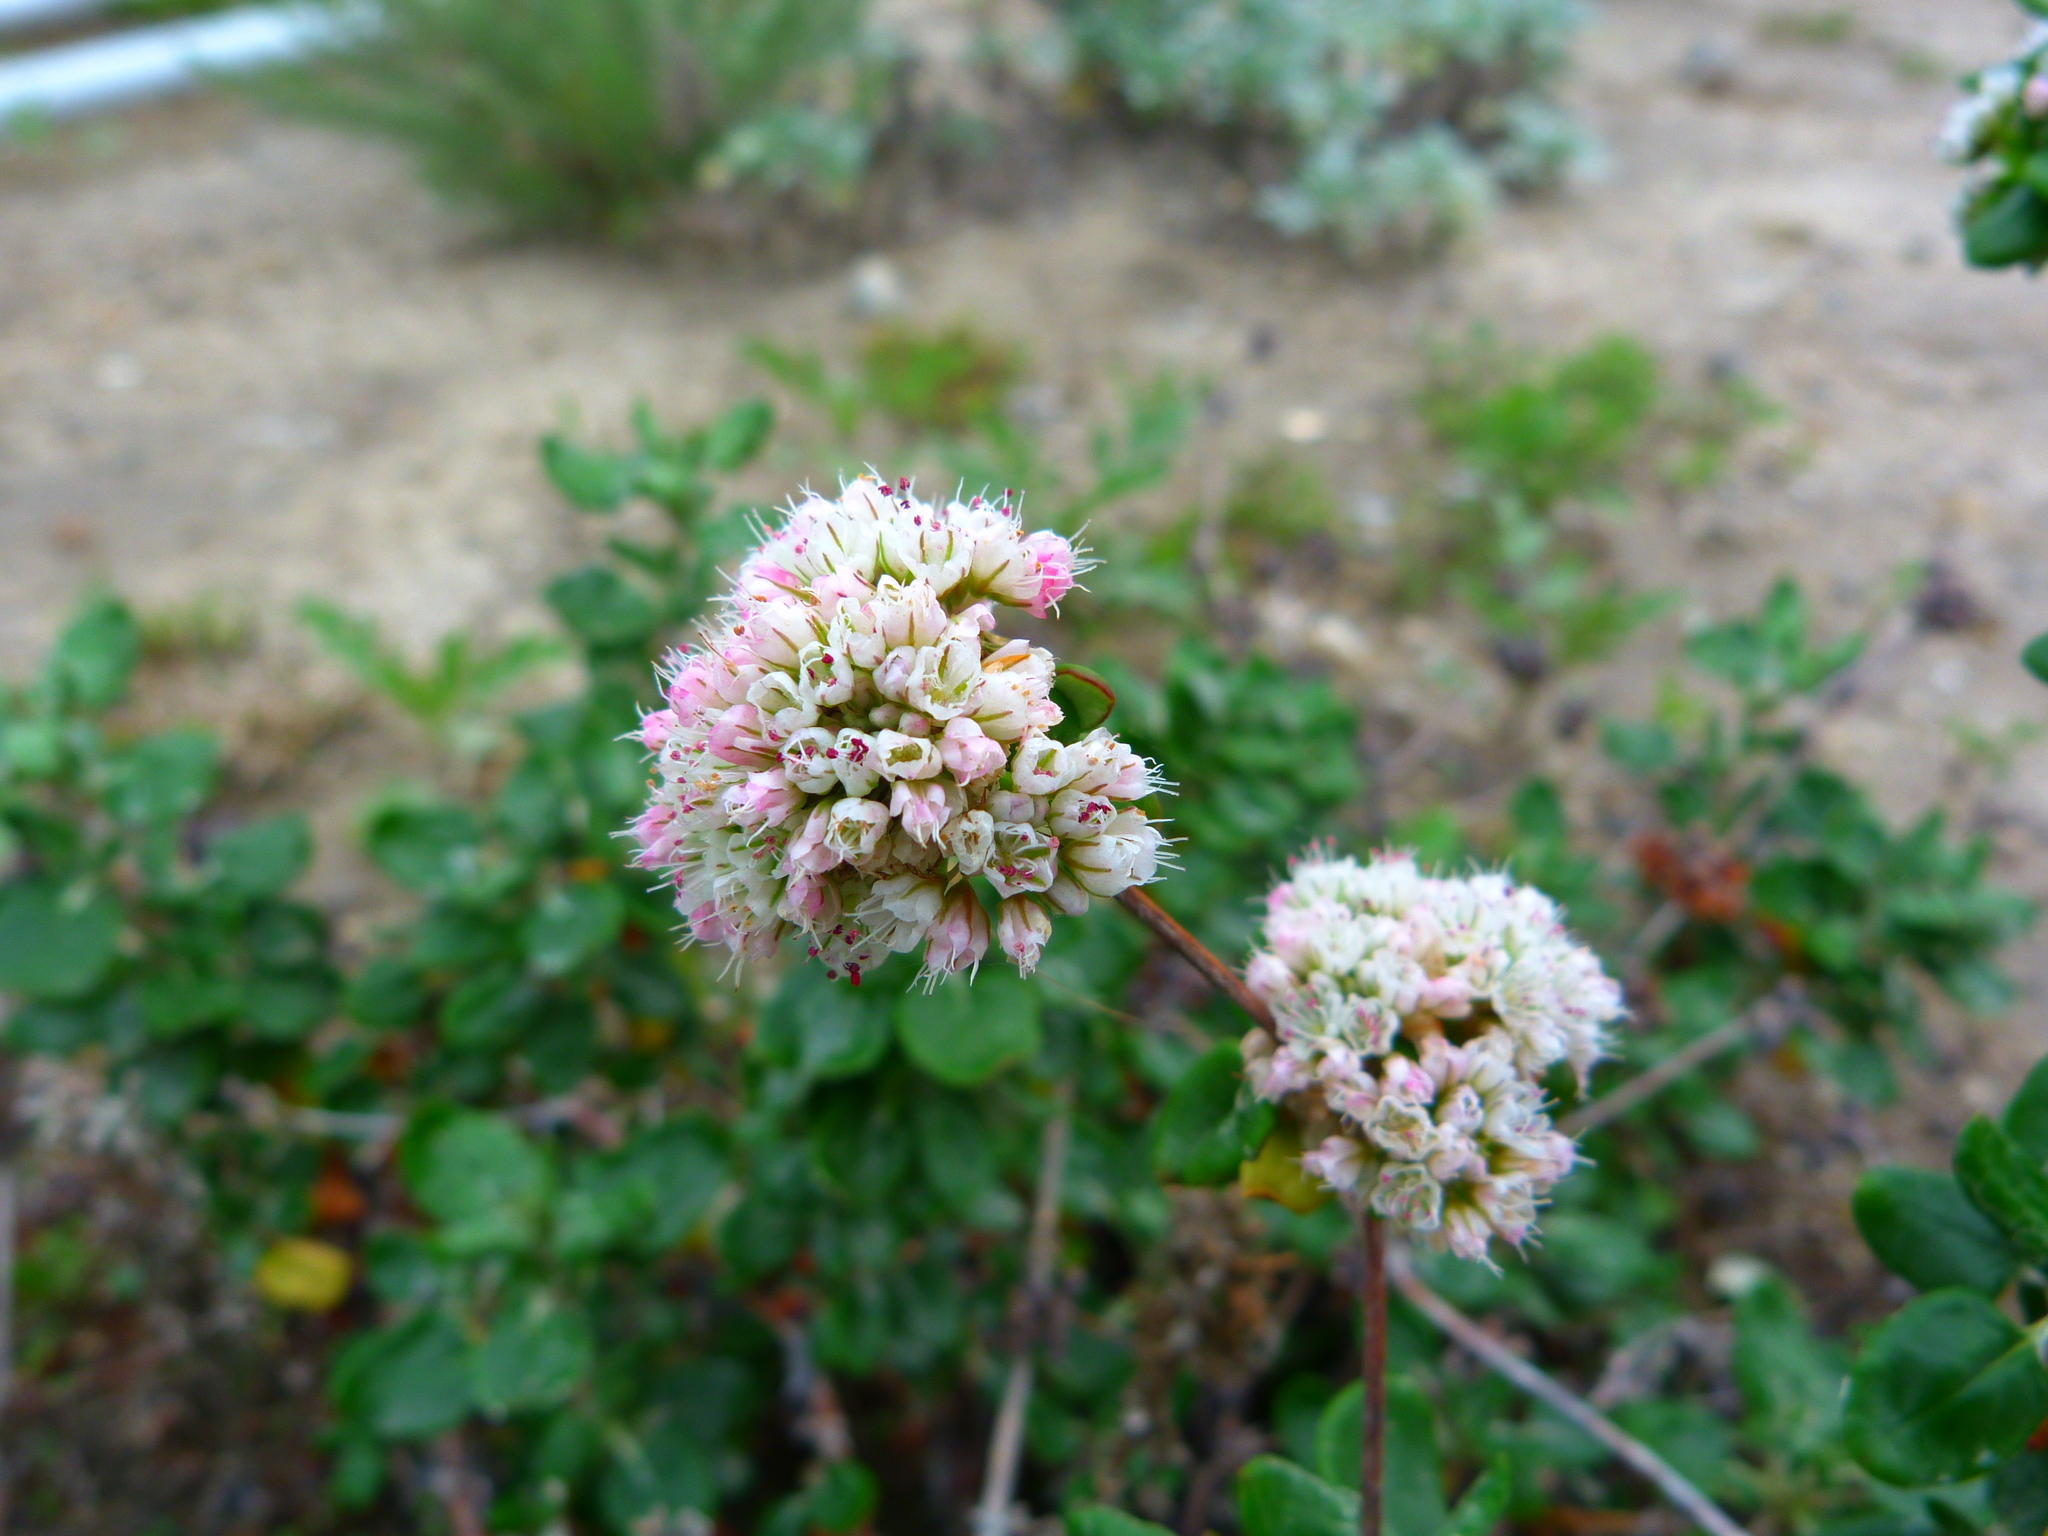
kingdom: Plantae
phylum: Tracheophyta
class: Magnoliopsida
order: Caryophyllales
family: Polygonaceae
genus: Eriogonum
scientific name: Eriogonum parvifolium
